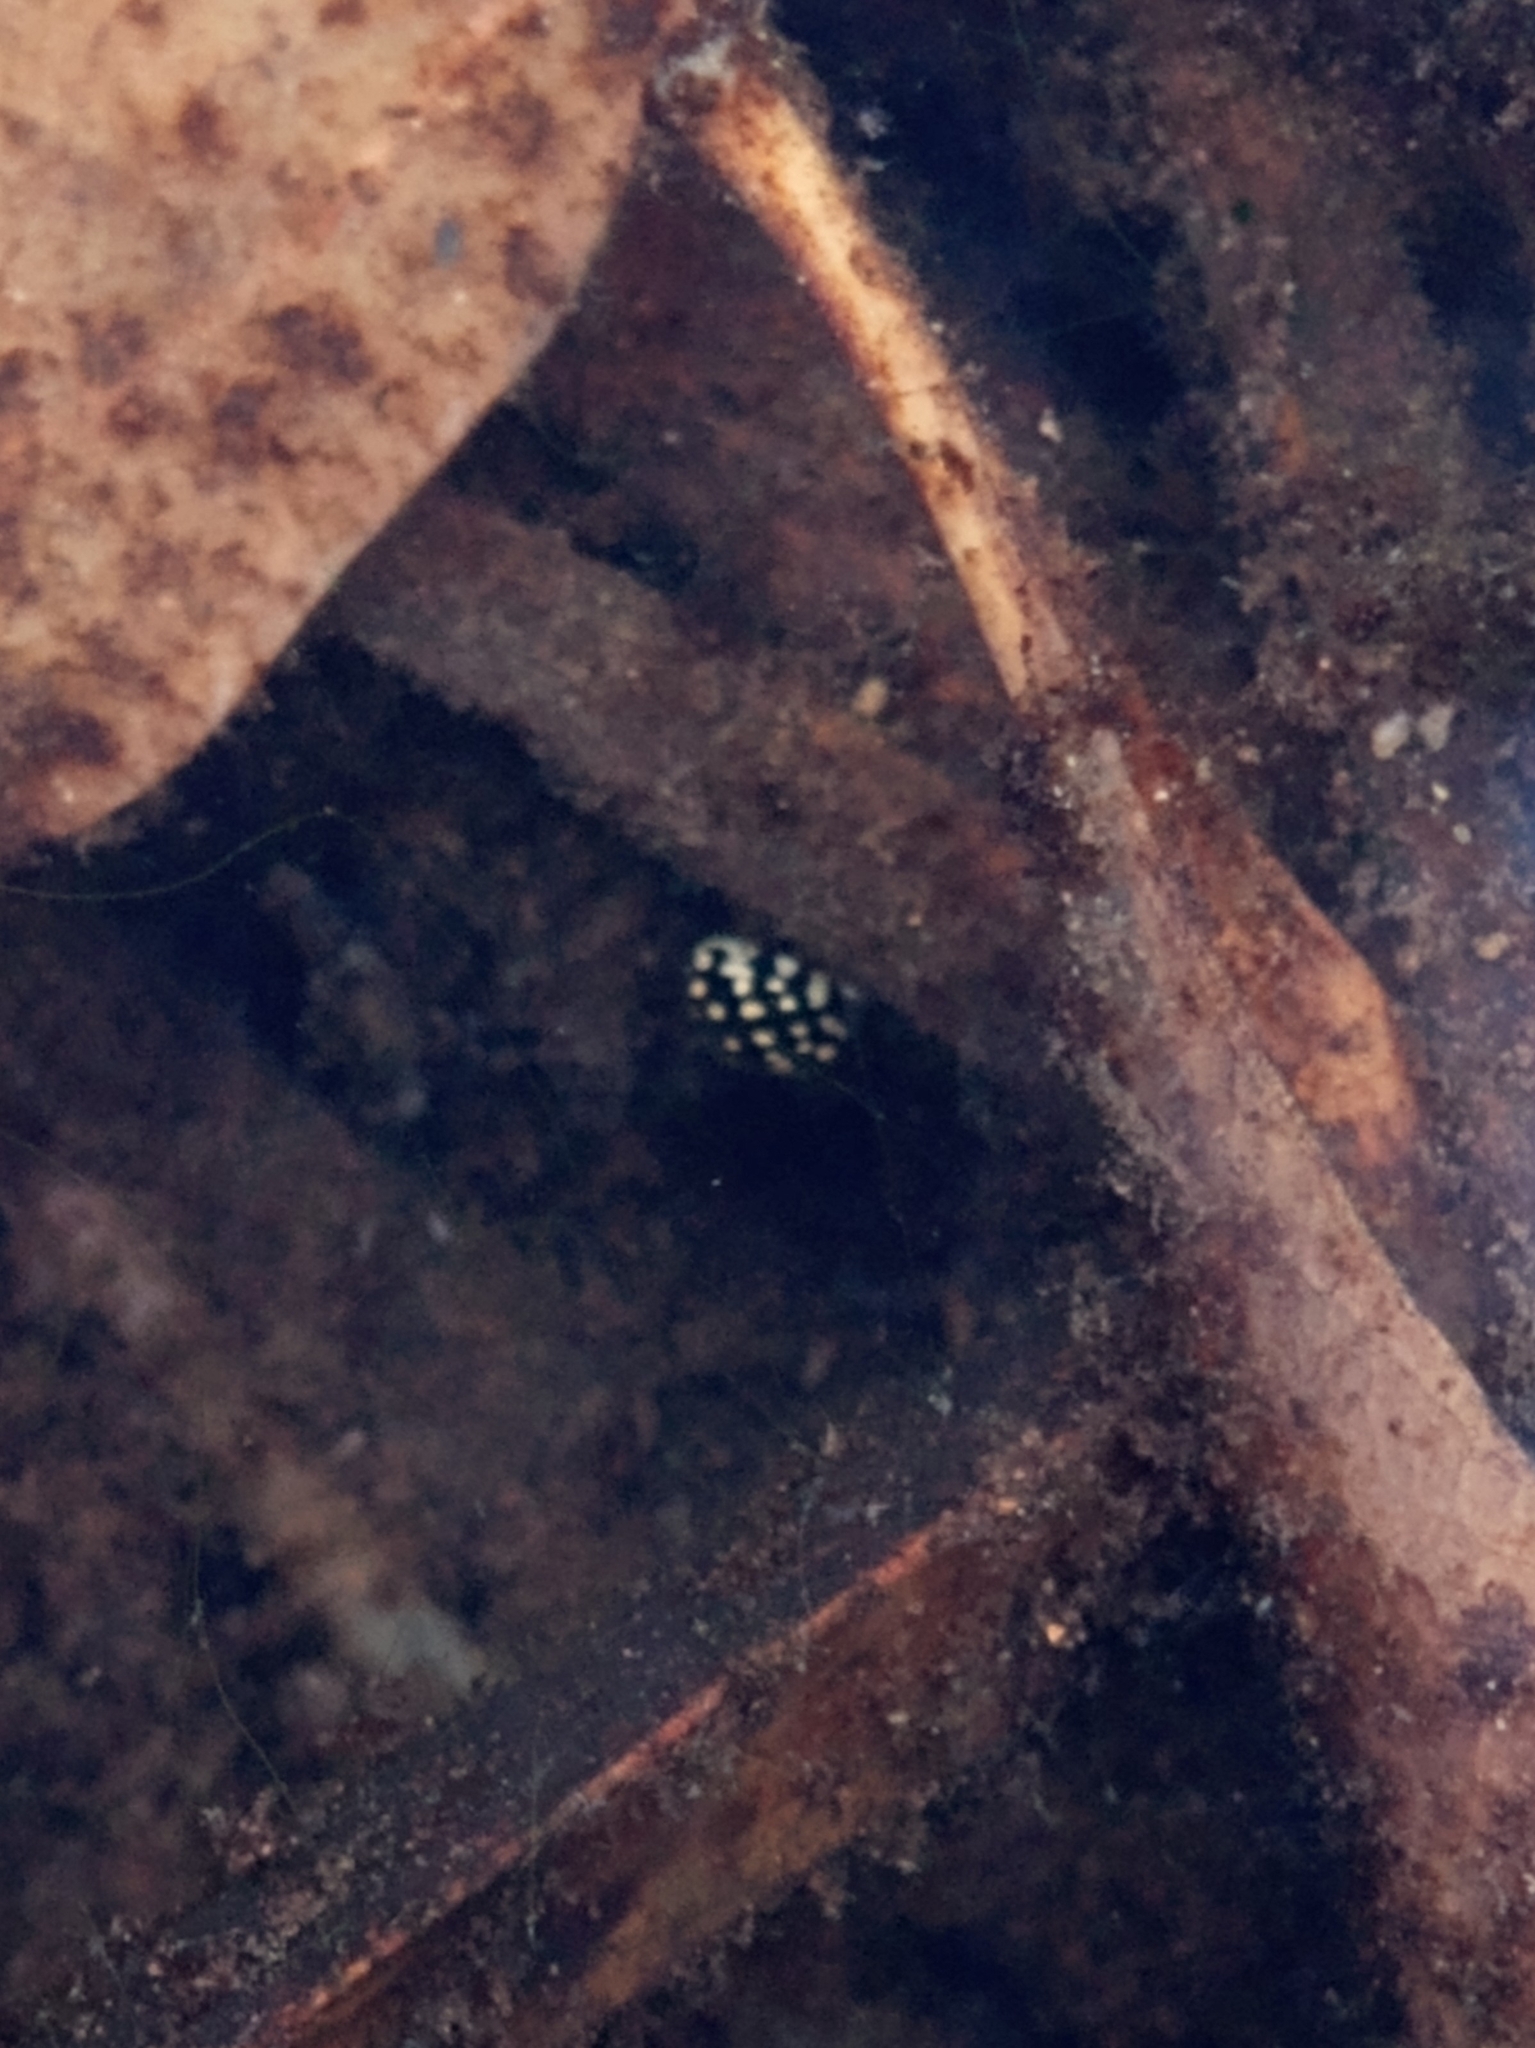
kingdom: Animalia
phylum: Arthropoda
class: Insecta
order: Coleoptera
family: Dytiscidae
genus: Laccophilus
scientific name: Laccophilus pictus
